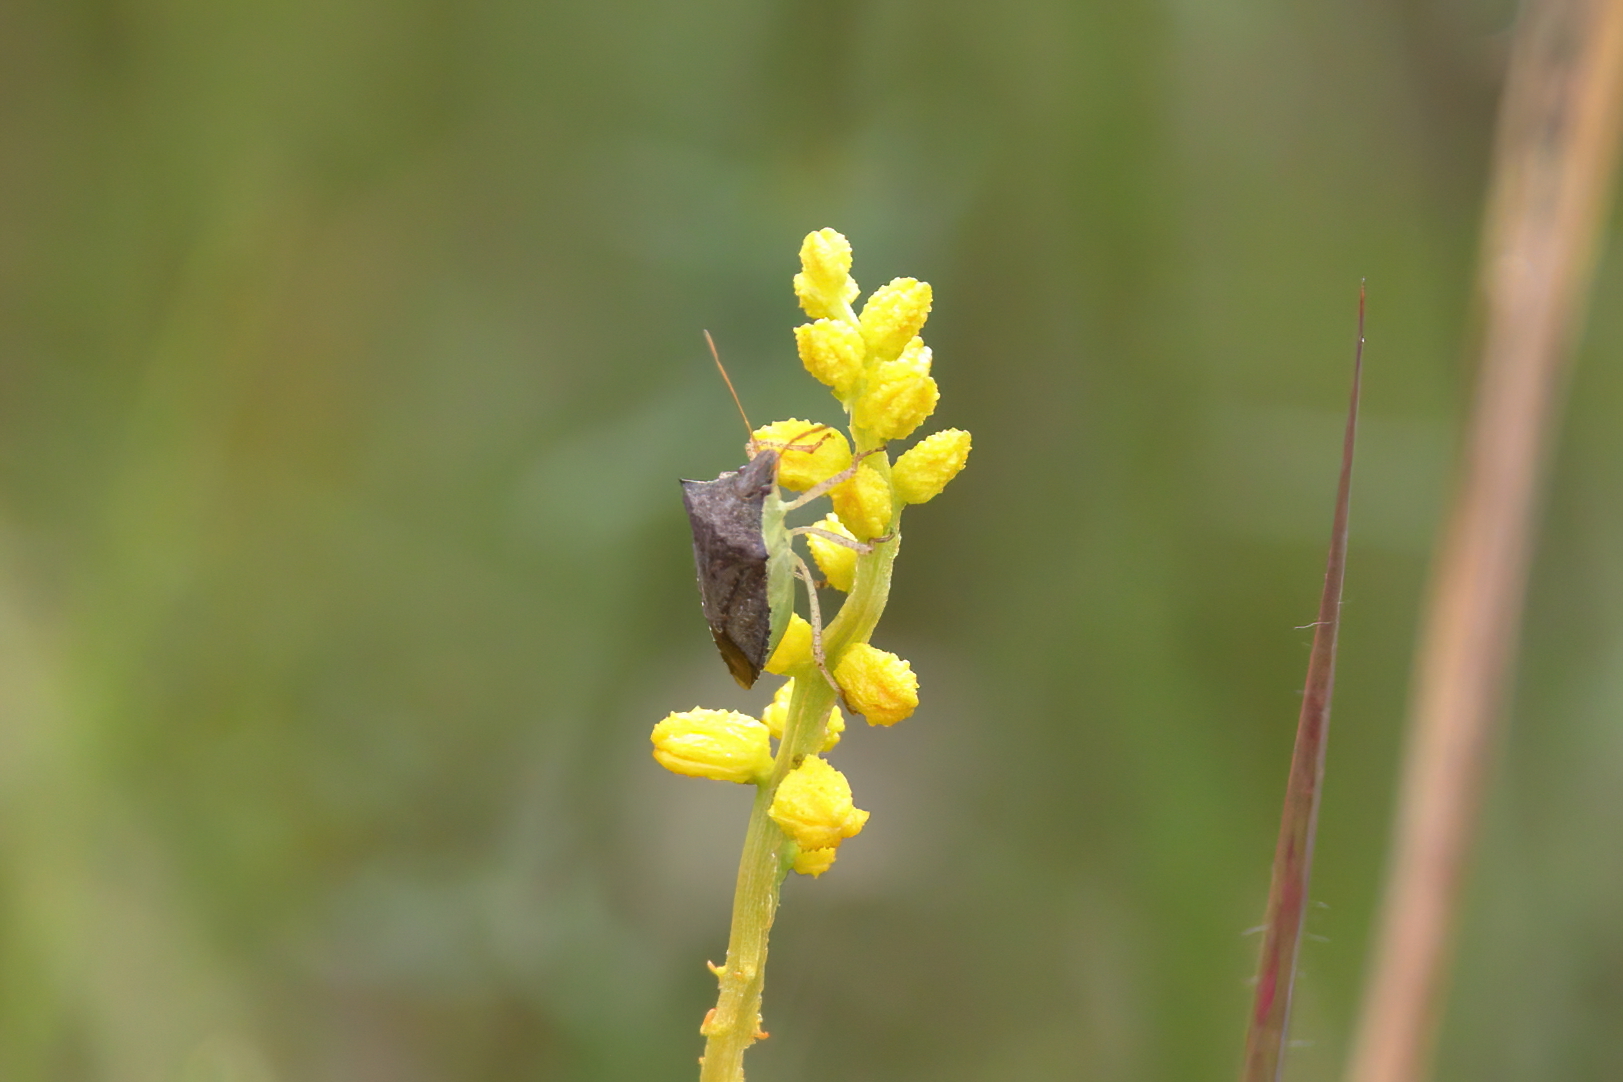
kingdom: Animalia
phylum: Arthropoda
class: Insecta
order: Hemiptera
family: Pentatomidae
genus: Euschistus
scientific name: Euschistus servus
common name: Brown stink bug
